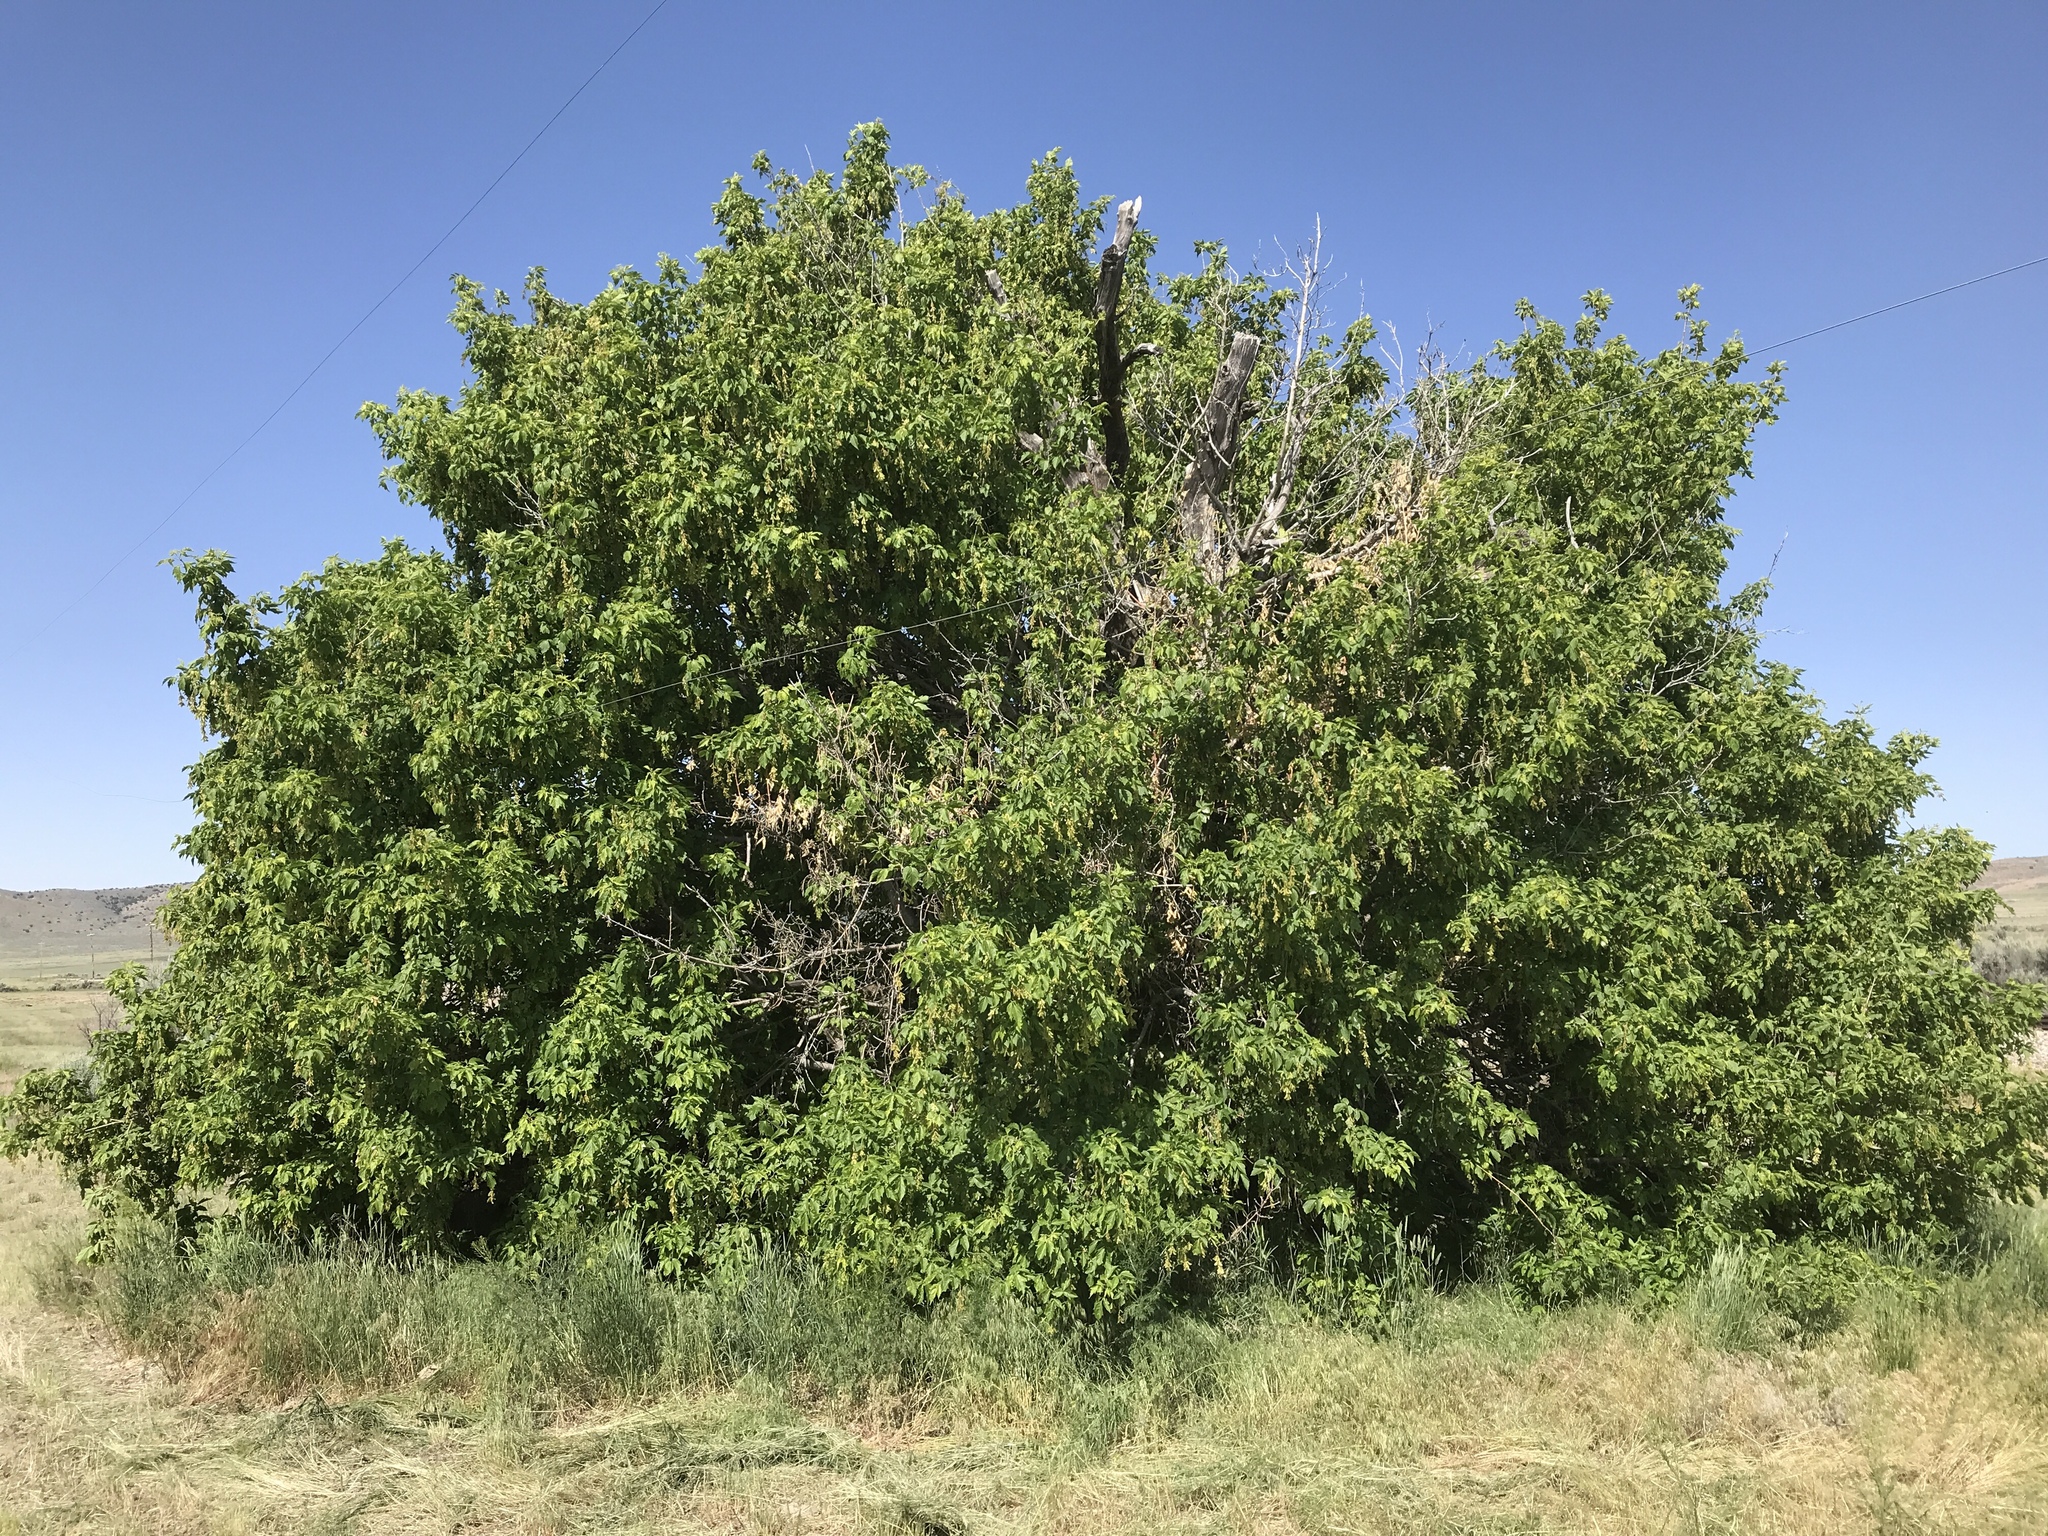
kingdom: Plantae
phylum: Tracheophyta
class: Magnoliopsida
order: Sapindales
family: Sapindaceae
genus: Acer
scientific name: Acer negundo
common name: Ashleaf maple
